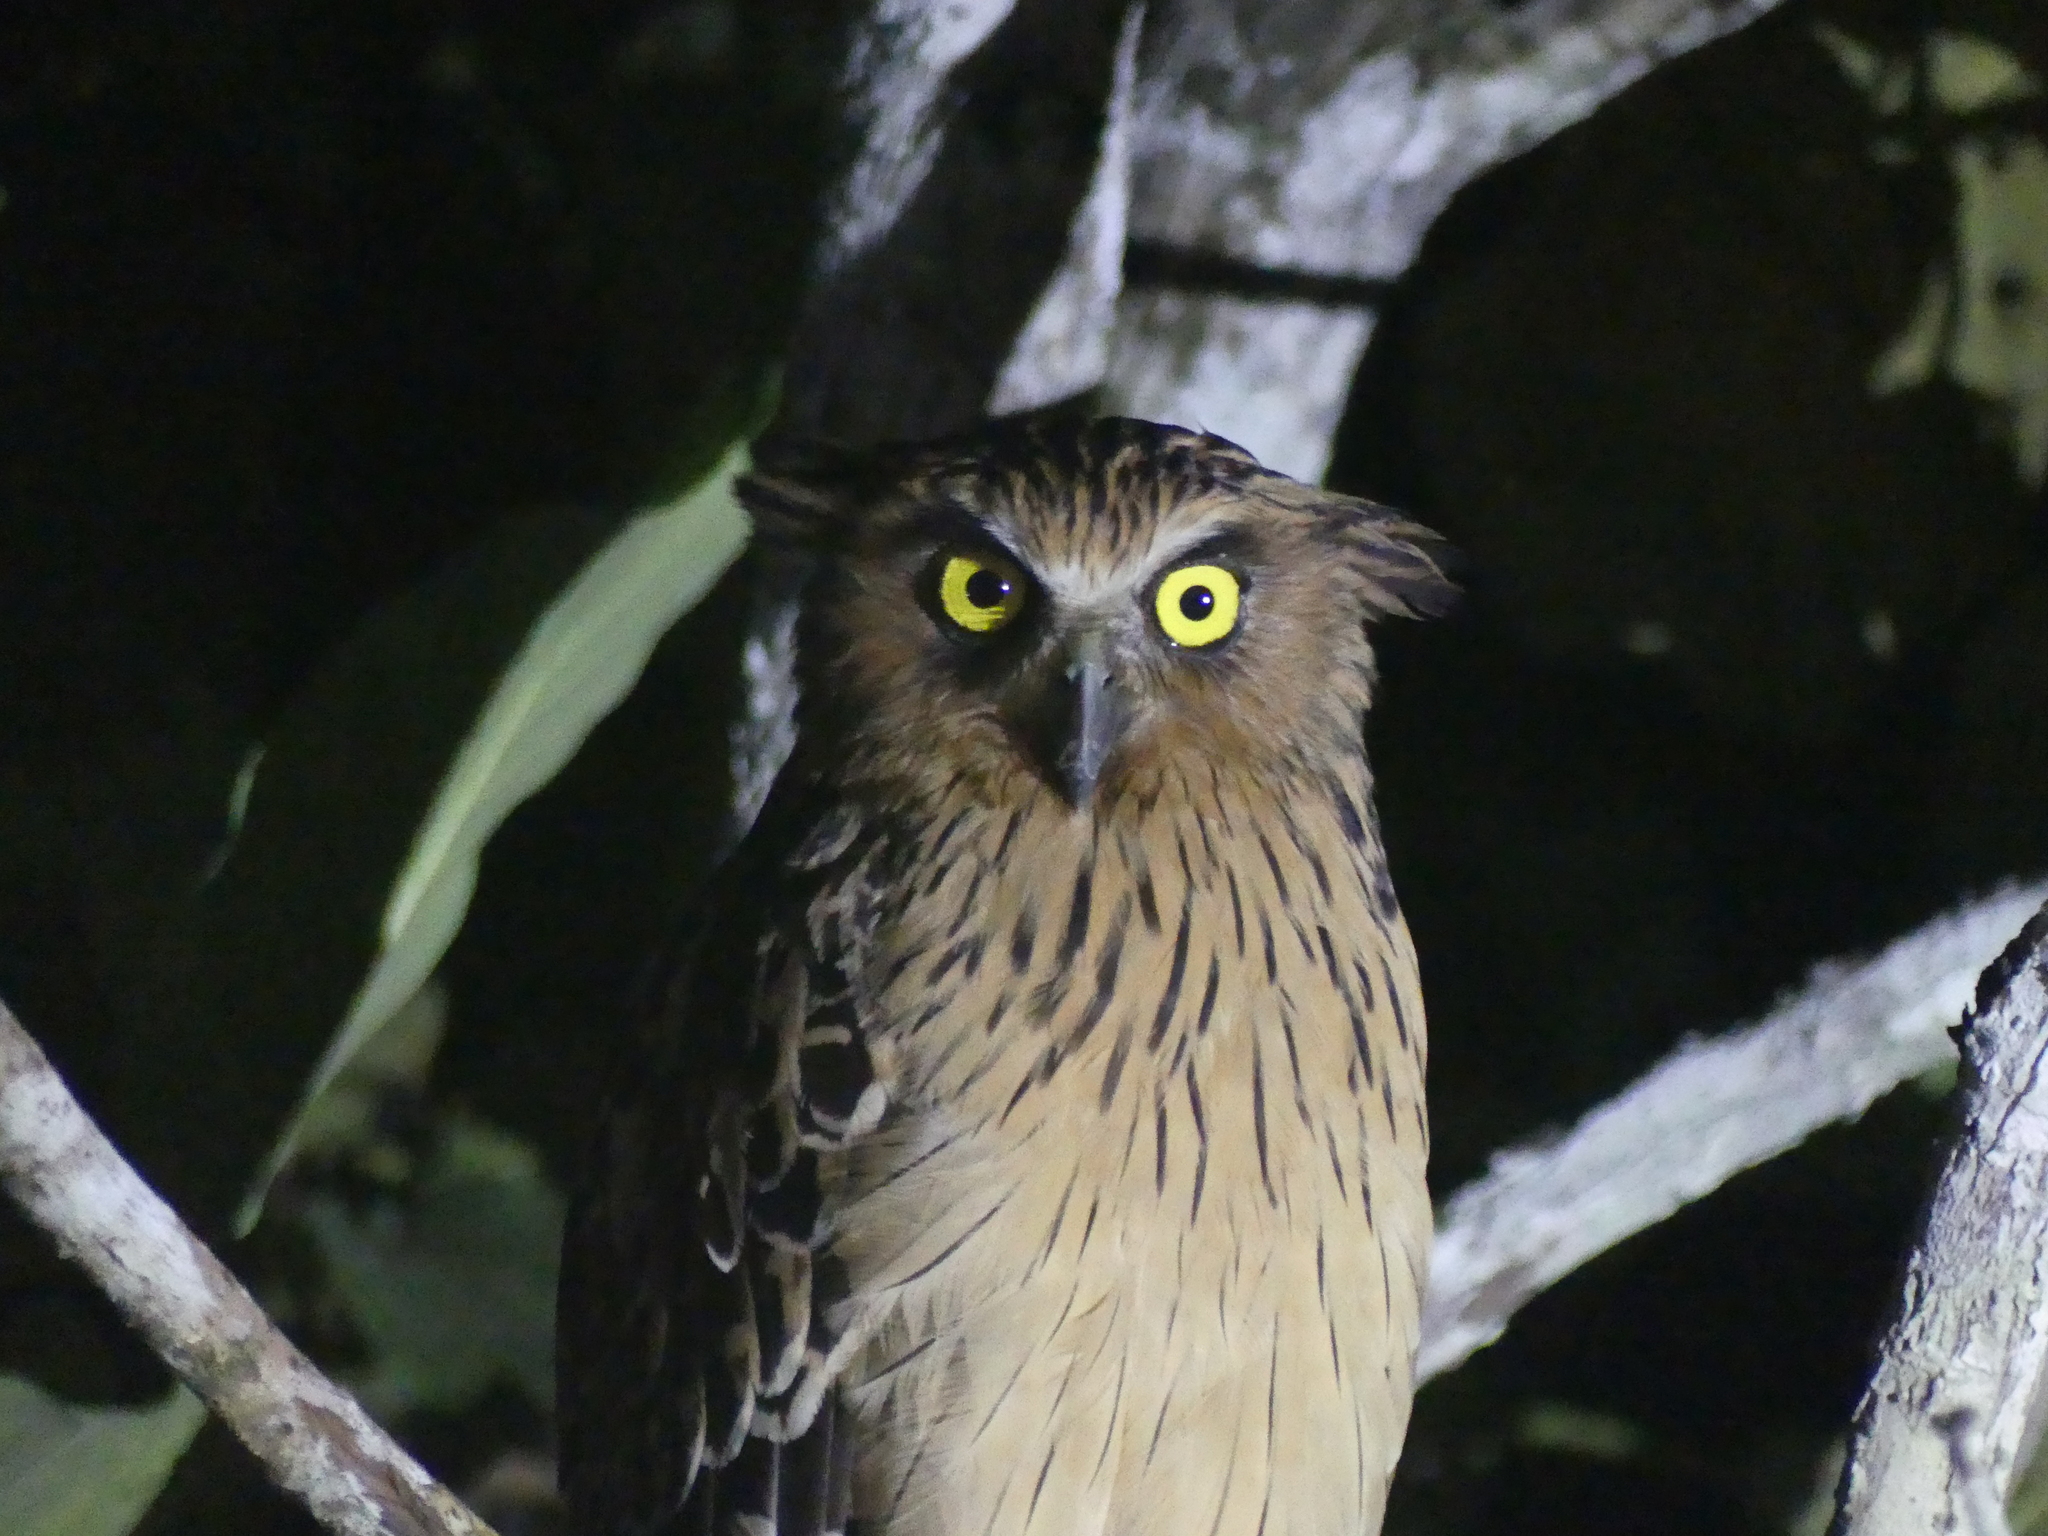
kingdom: Animalia
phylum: Chordata
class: Aves
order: Strigiformes
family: Strigidae
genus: Ketupa
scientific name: Ketupa ketupu
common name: Buffy fish-owl
